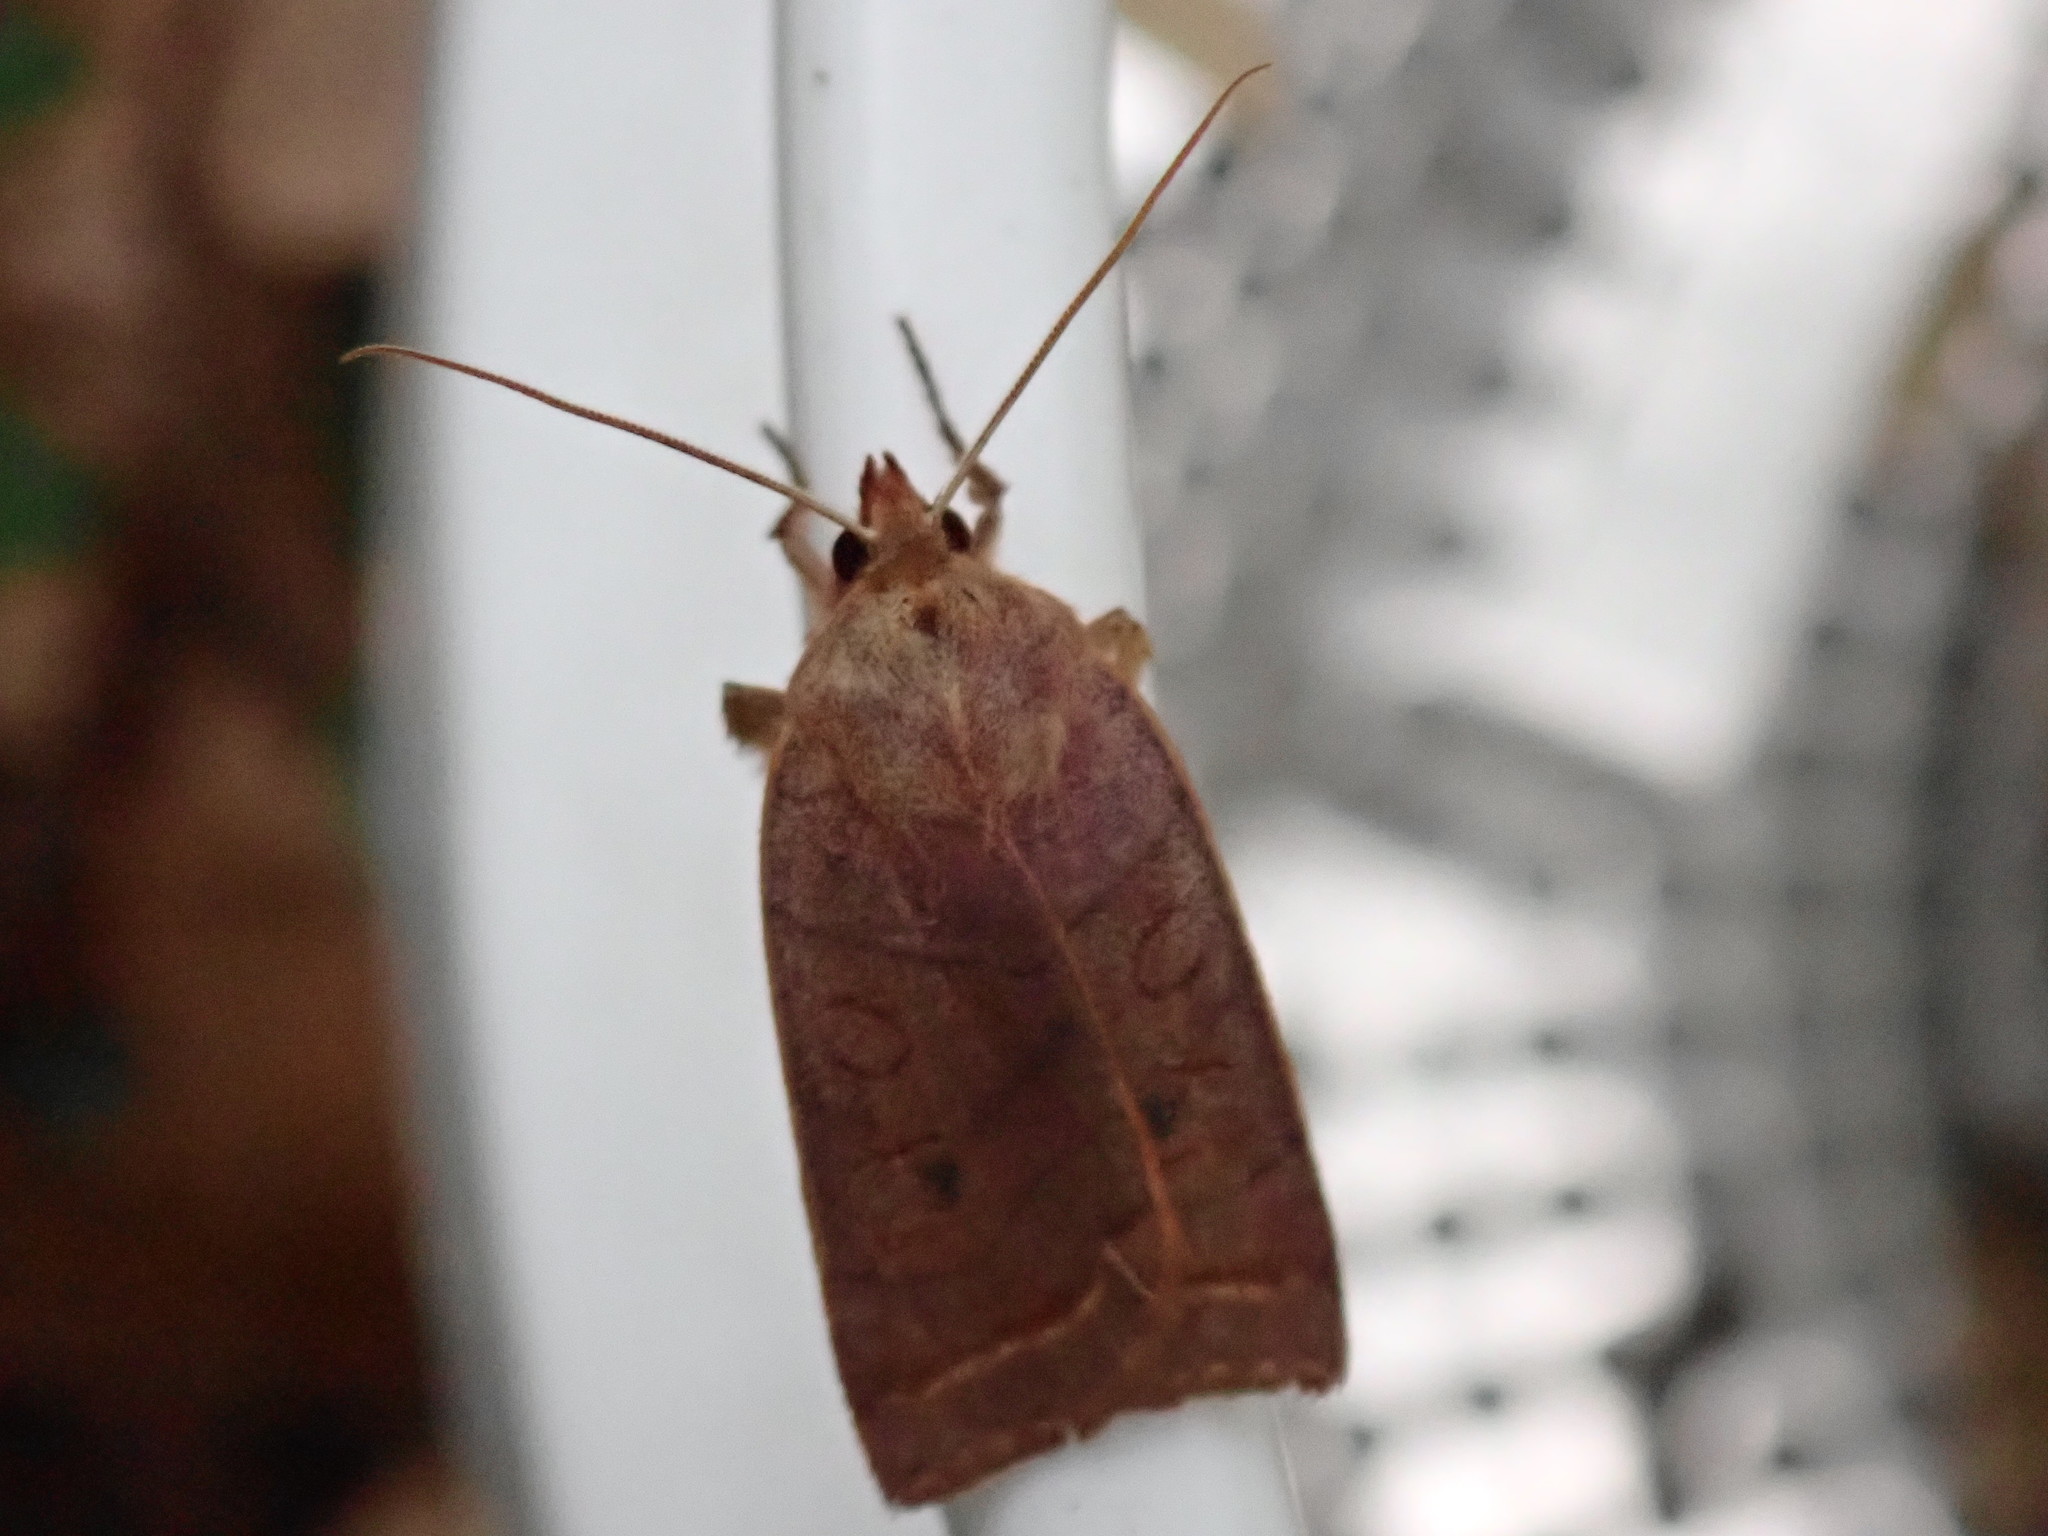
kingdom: Animalia
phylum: Arthropoda
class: Insecta
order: Lepidoptera
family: Noctuidae
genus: Epiglaea
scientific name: Epiglaea apiata
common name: Pointed sallow
